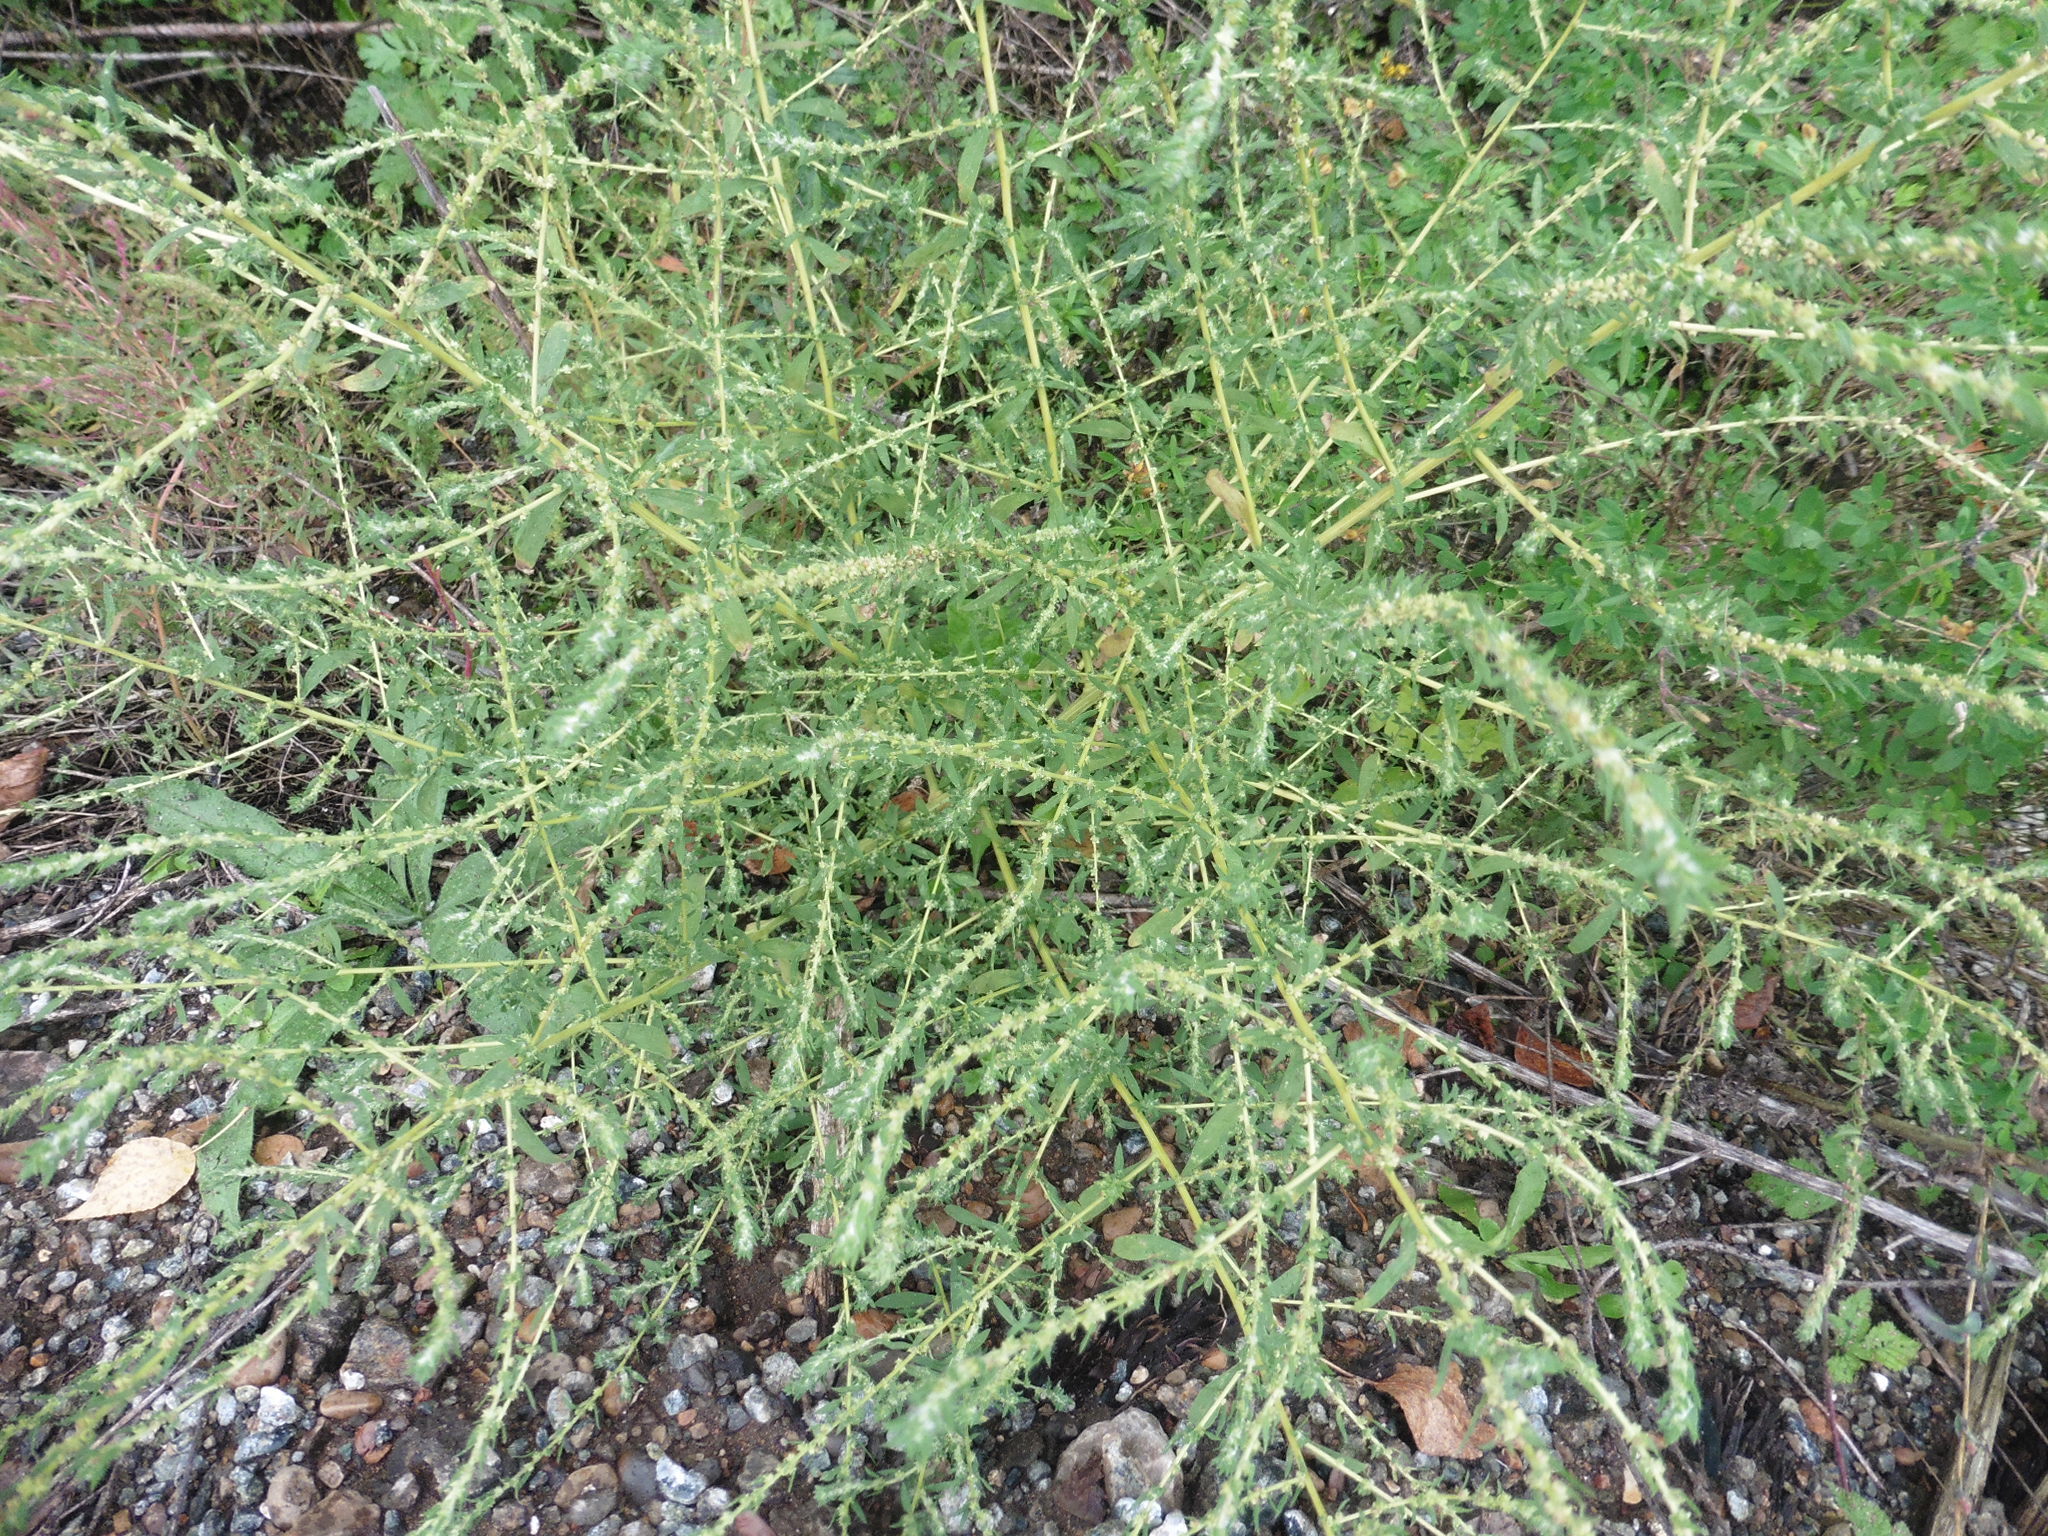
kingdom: Plantae
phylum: Tracheophyta
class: Magnoliopsida
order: Caryophyllales
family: Amaranthaceae
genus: Amaranthus
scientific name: Amaranthus albus
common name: White pigweed
